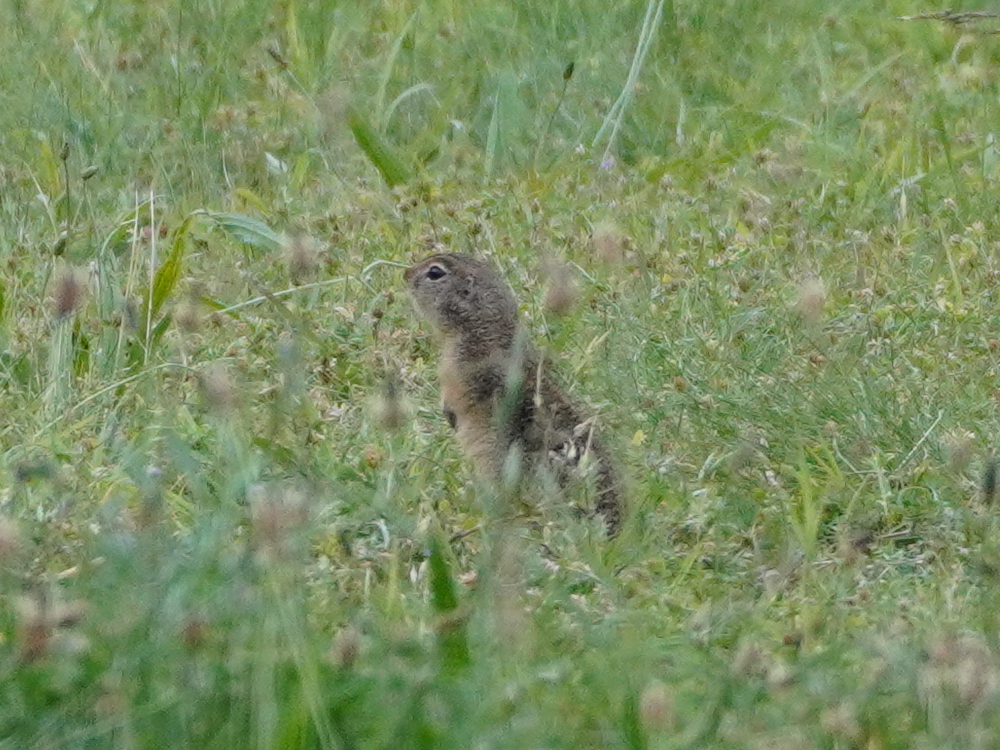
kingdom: Animalia
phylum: Chordata
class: Mammalia
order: Rodentia
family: Sciuridae
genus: Spermophilus
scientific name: Spermophilus citellus
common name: European ground squirrel
